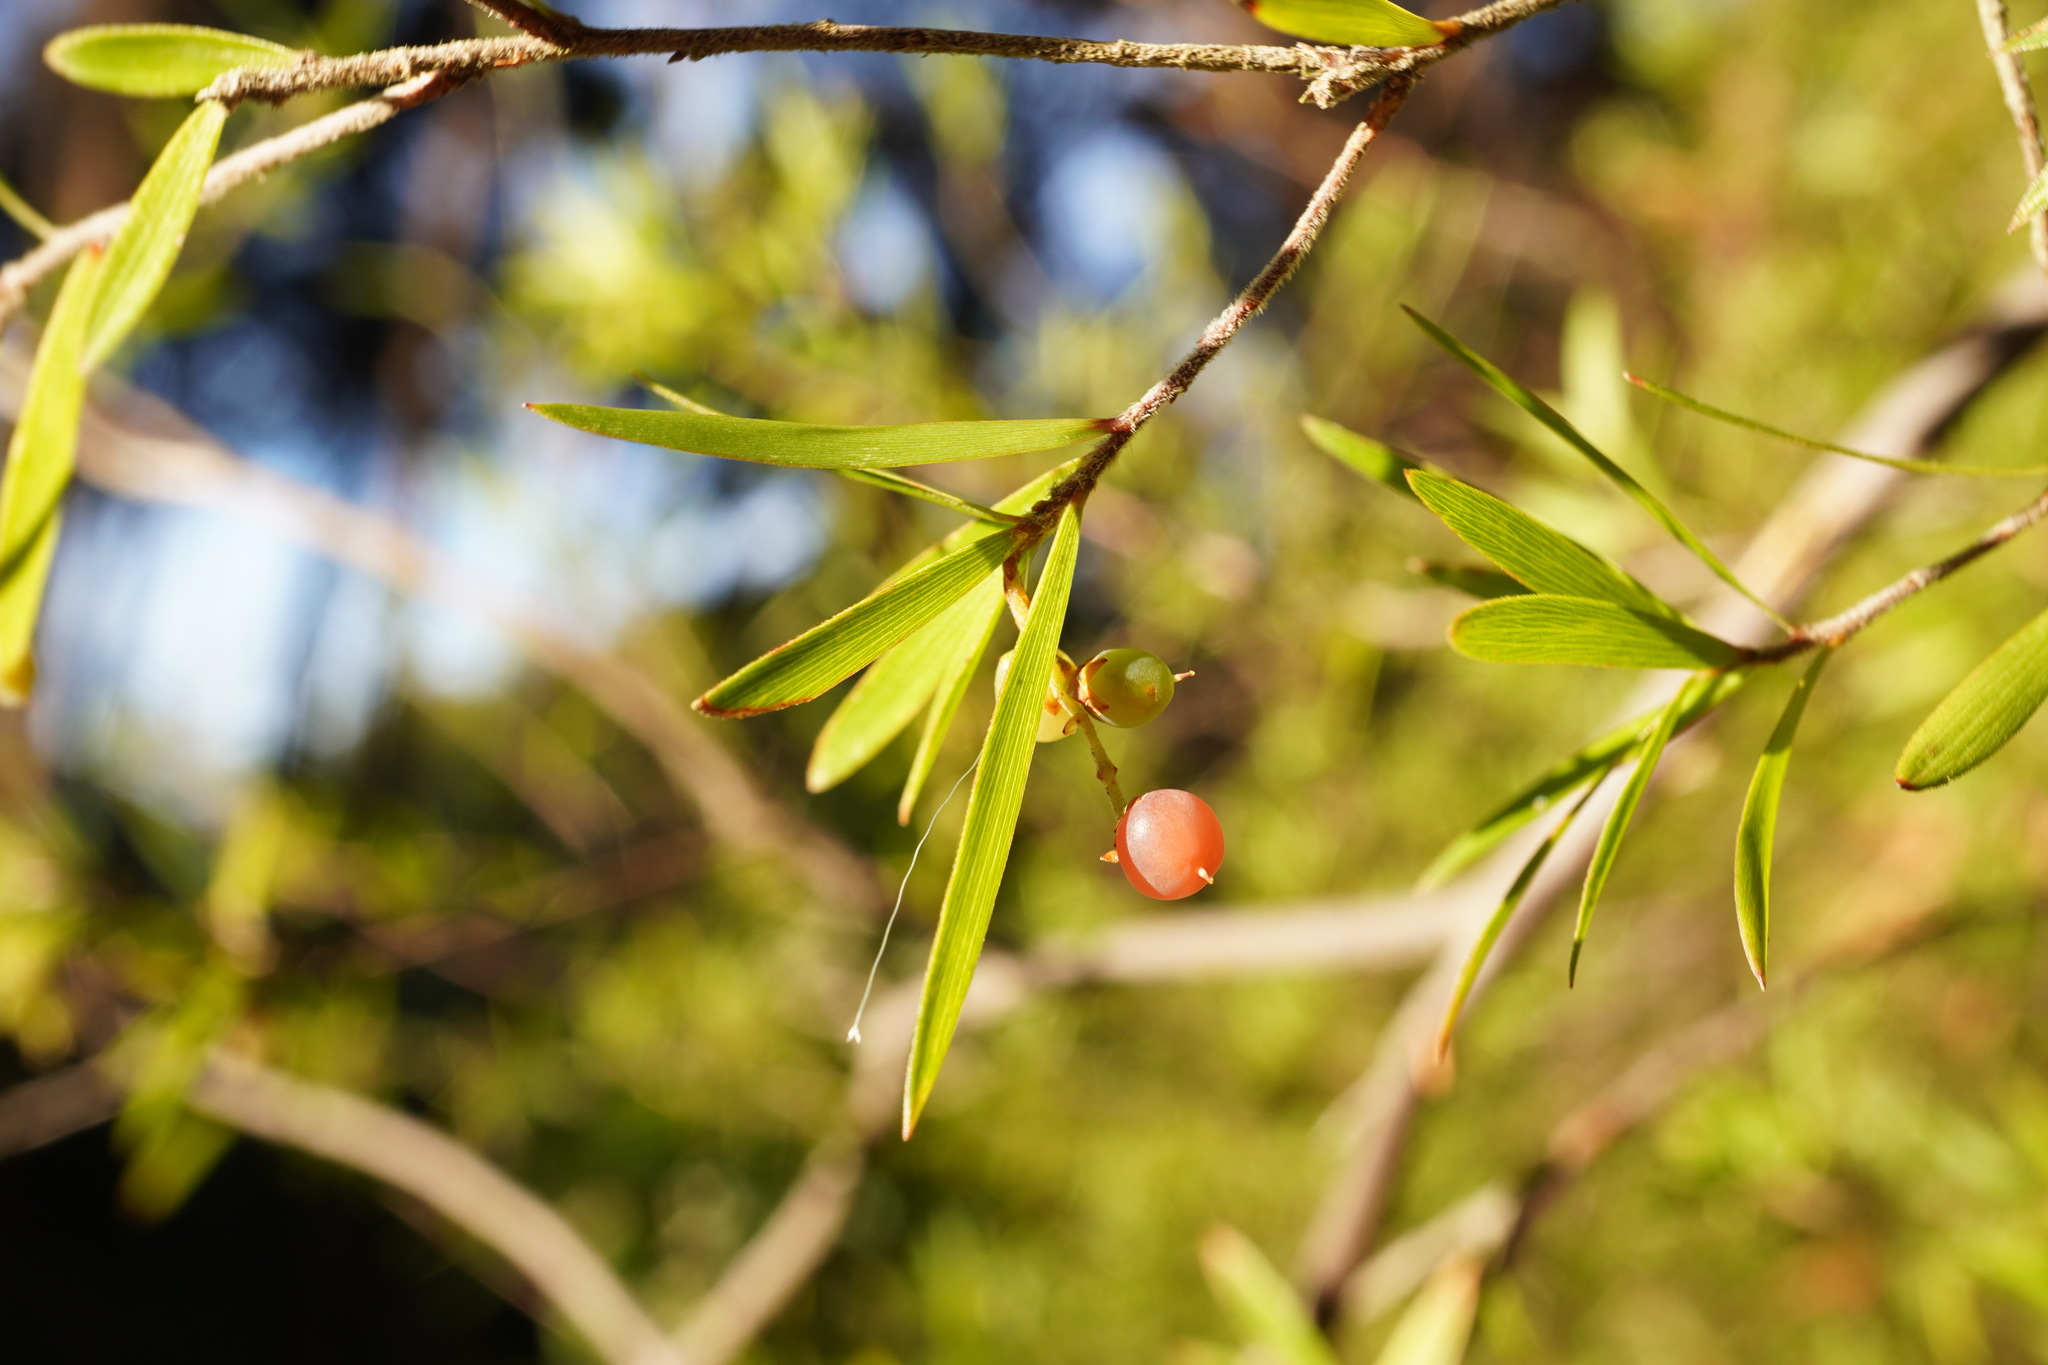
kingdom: Plantae
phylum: Tracheophyta
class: Magnoliopsida
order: Ericales
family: Ericaceae
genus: Leucopogon
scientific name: Leucopogon fasciculatus
